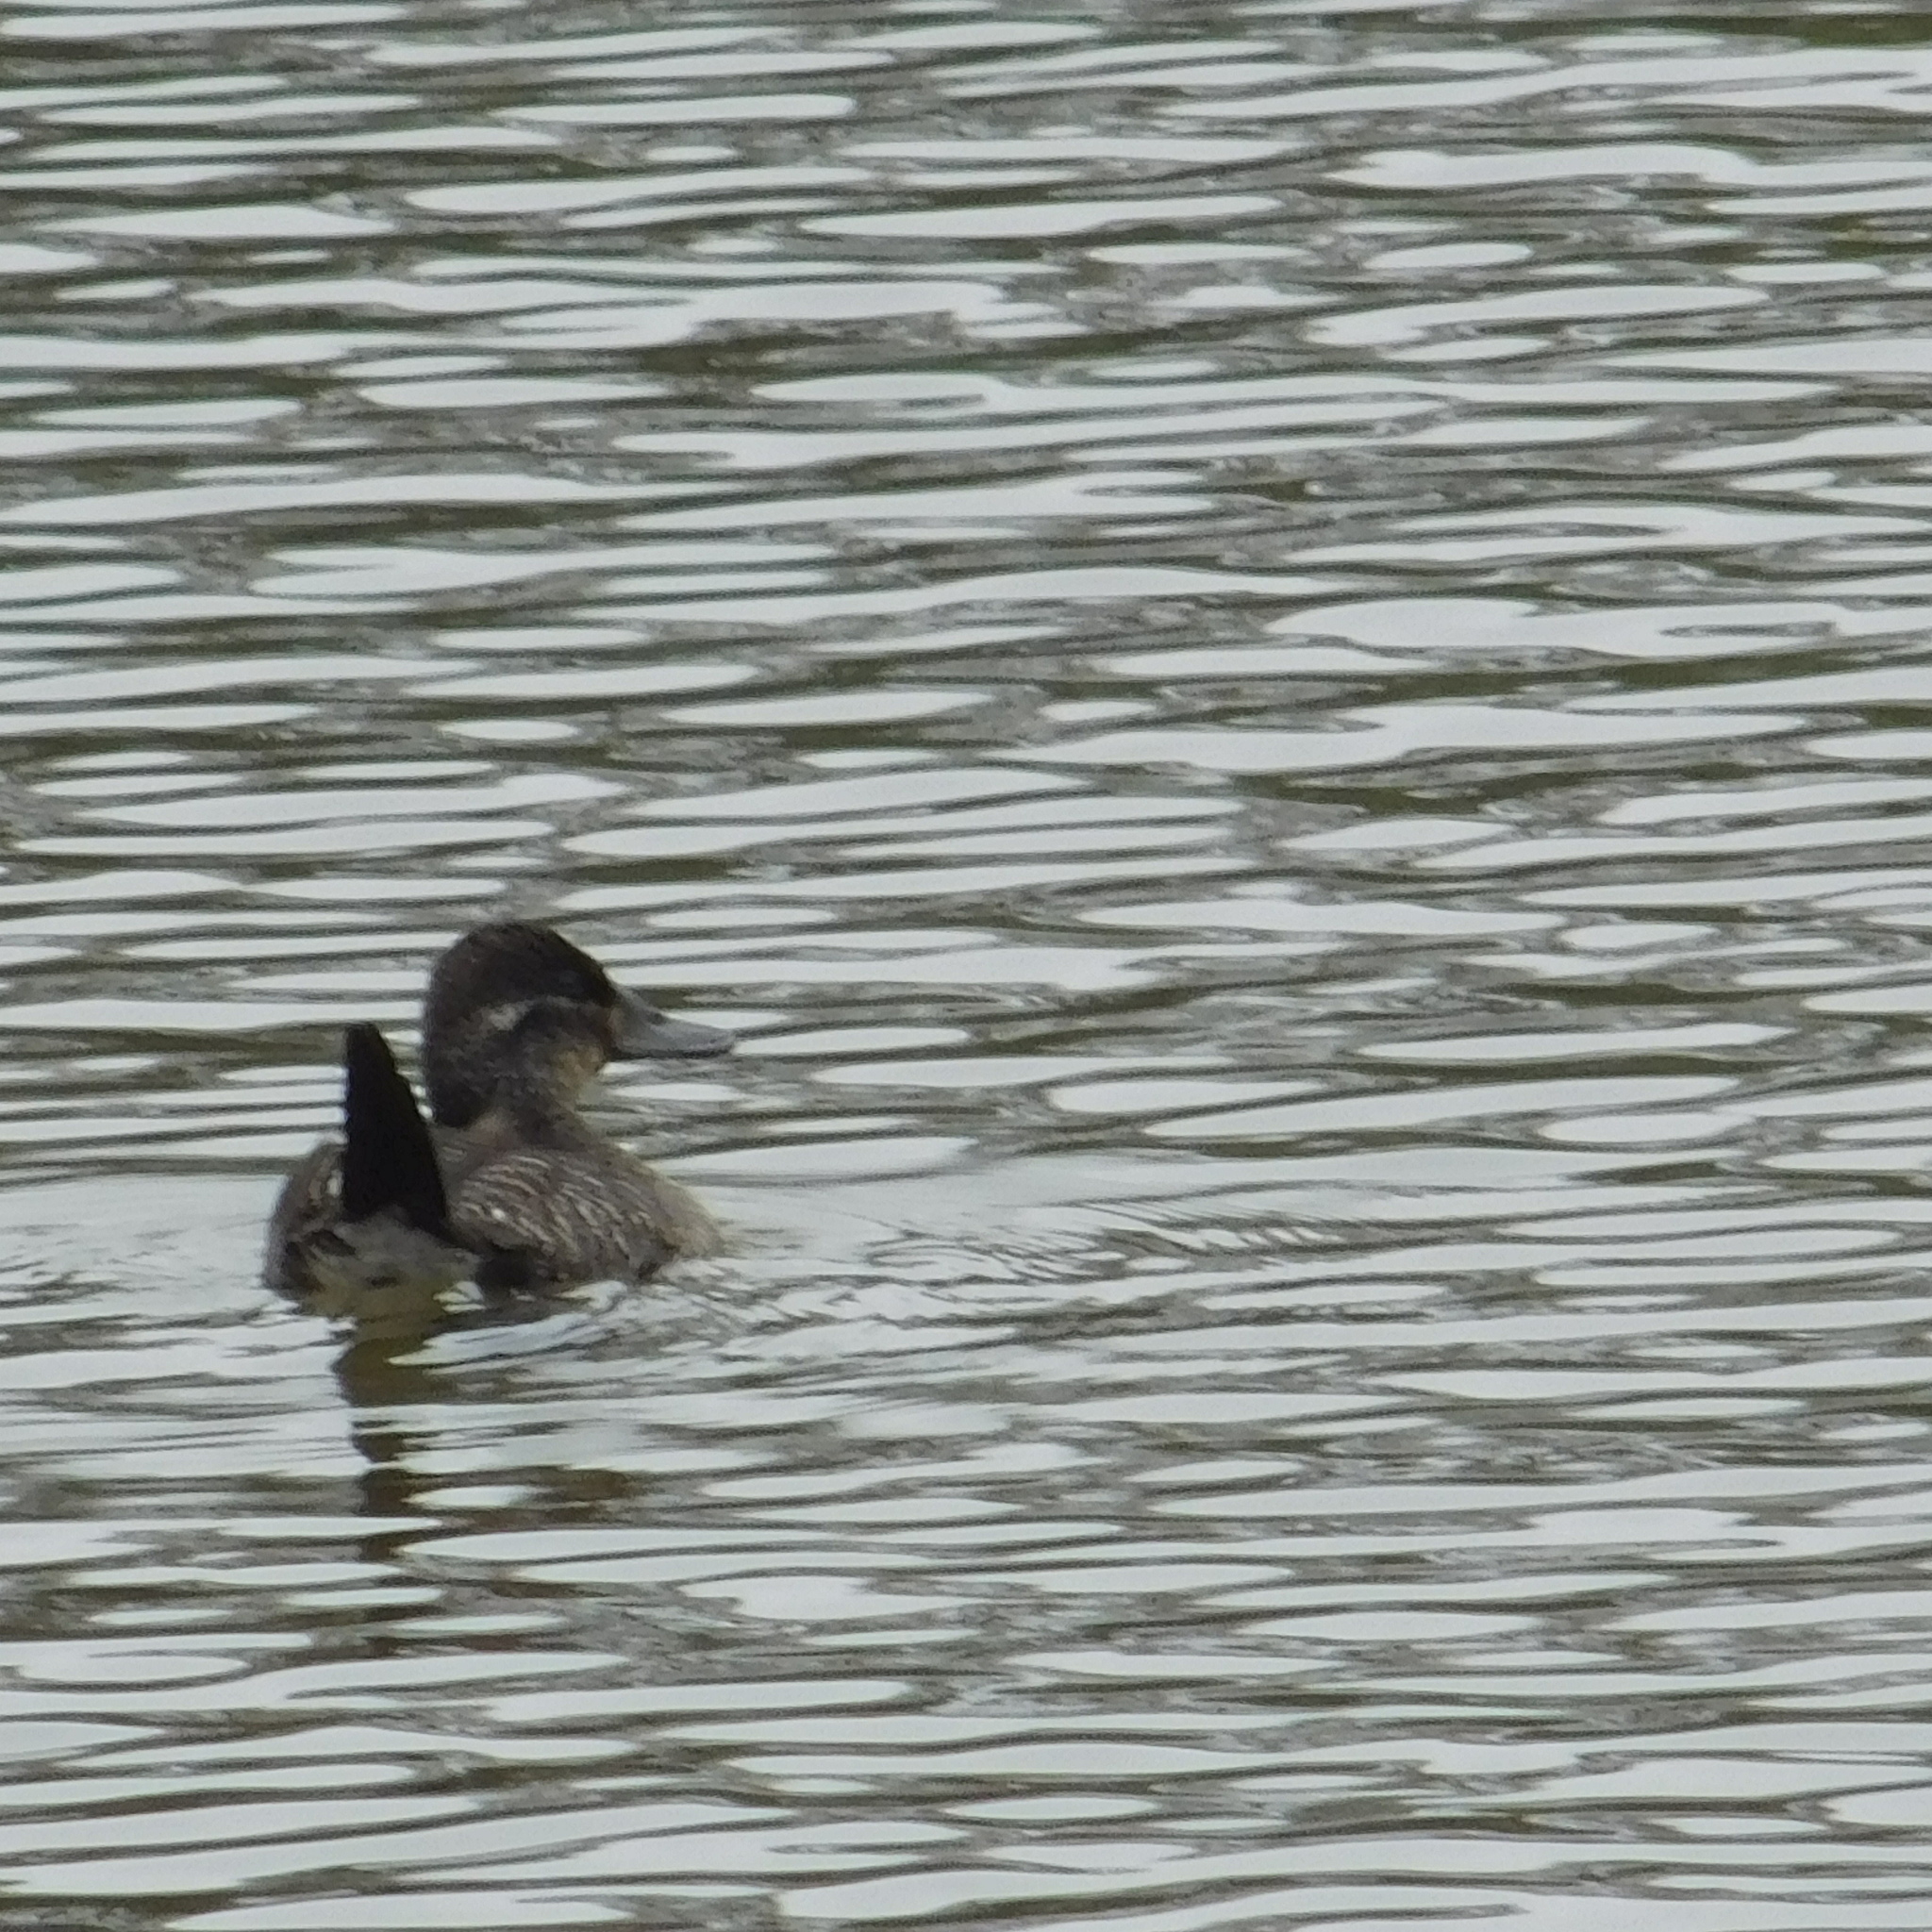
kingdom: Animalia
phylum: Chordata
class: Aves
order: Anseriformes
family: Anatidae
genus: Oxyura
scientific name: Oxyura vittata
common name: Lake duck
